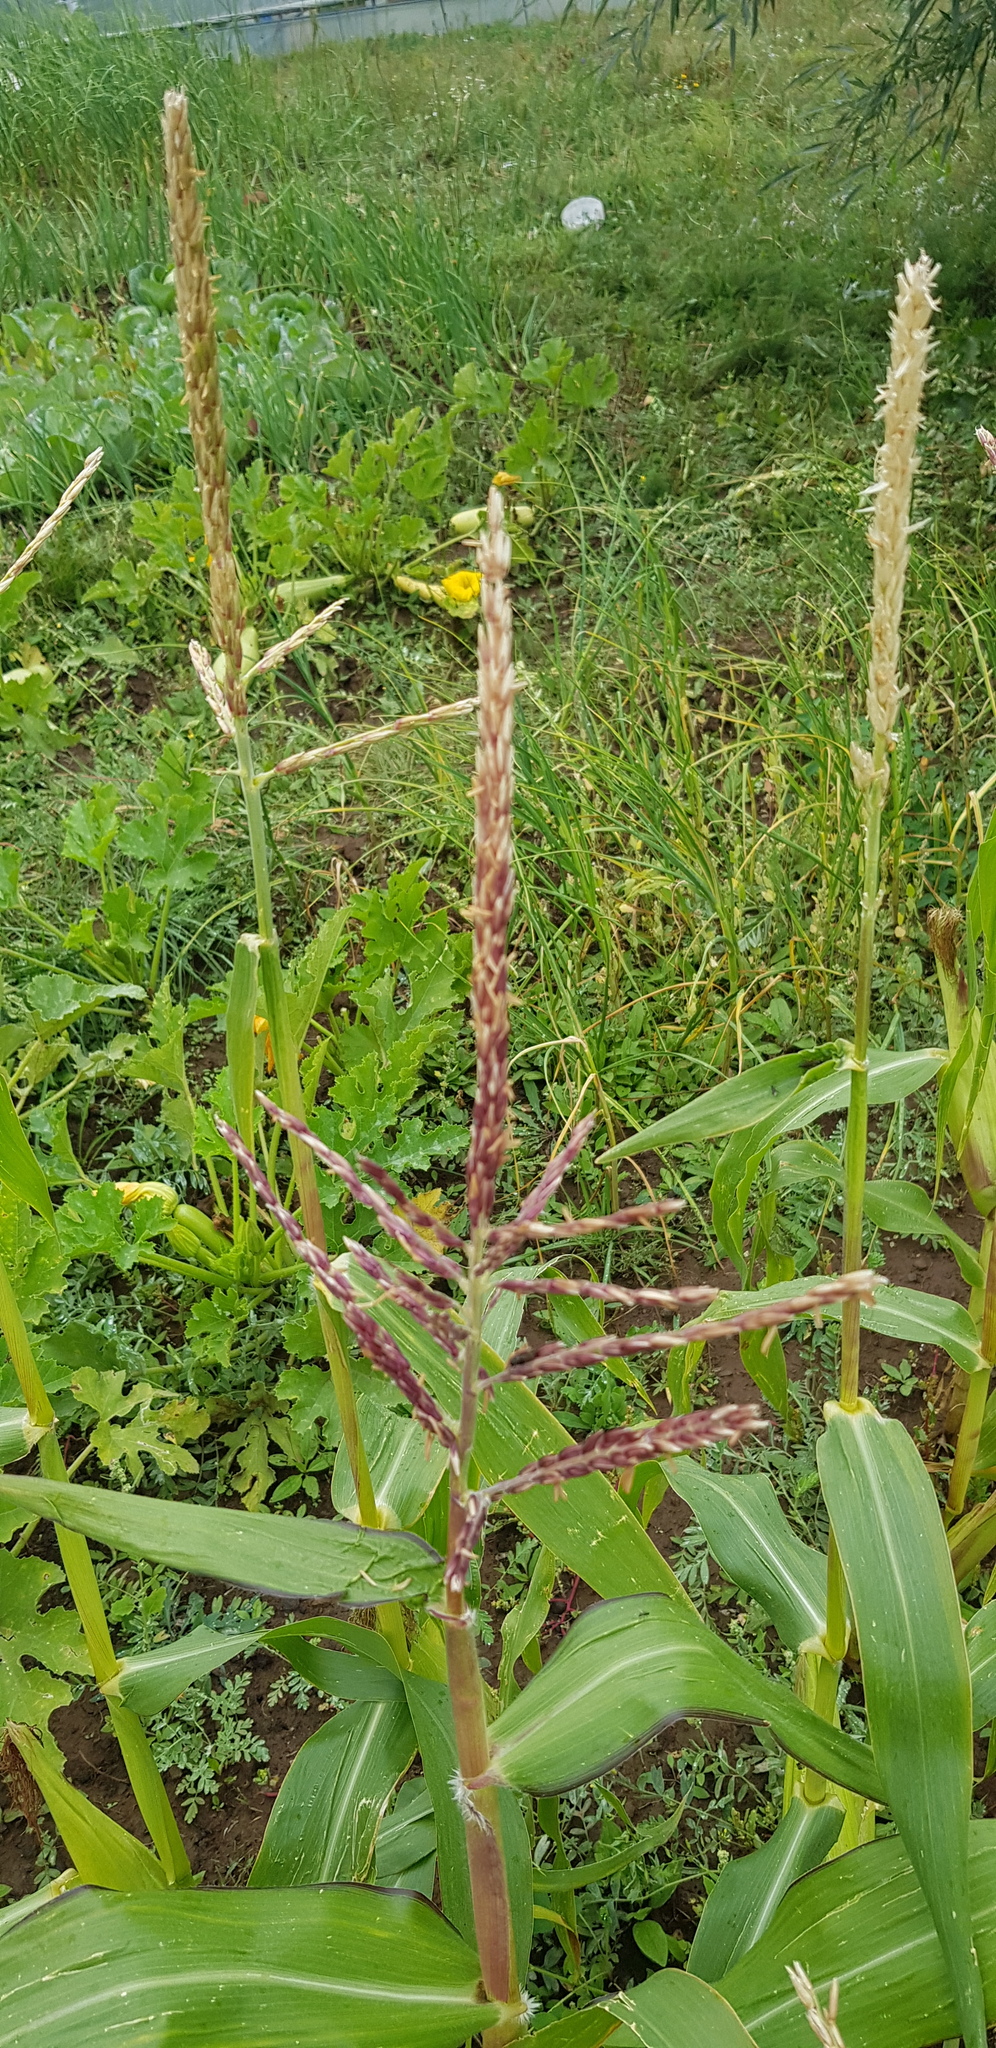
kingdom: Plantae
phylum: Tracheophyta
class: Liliopsida
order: Poales
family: Poaceae
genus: Zea
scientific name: Zea mays
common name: Maize
